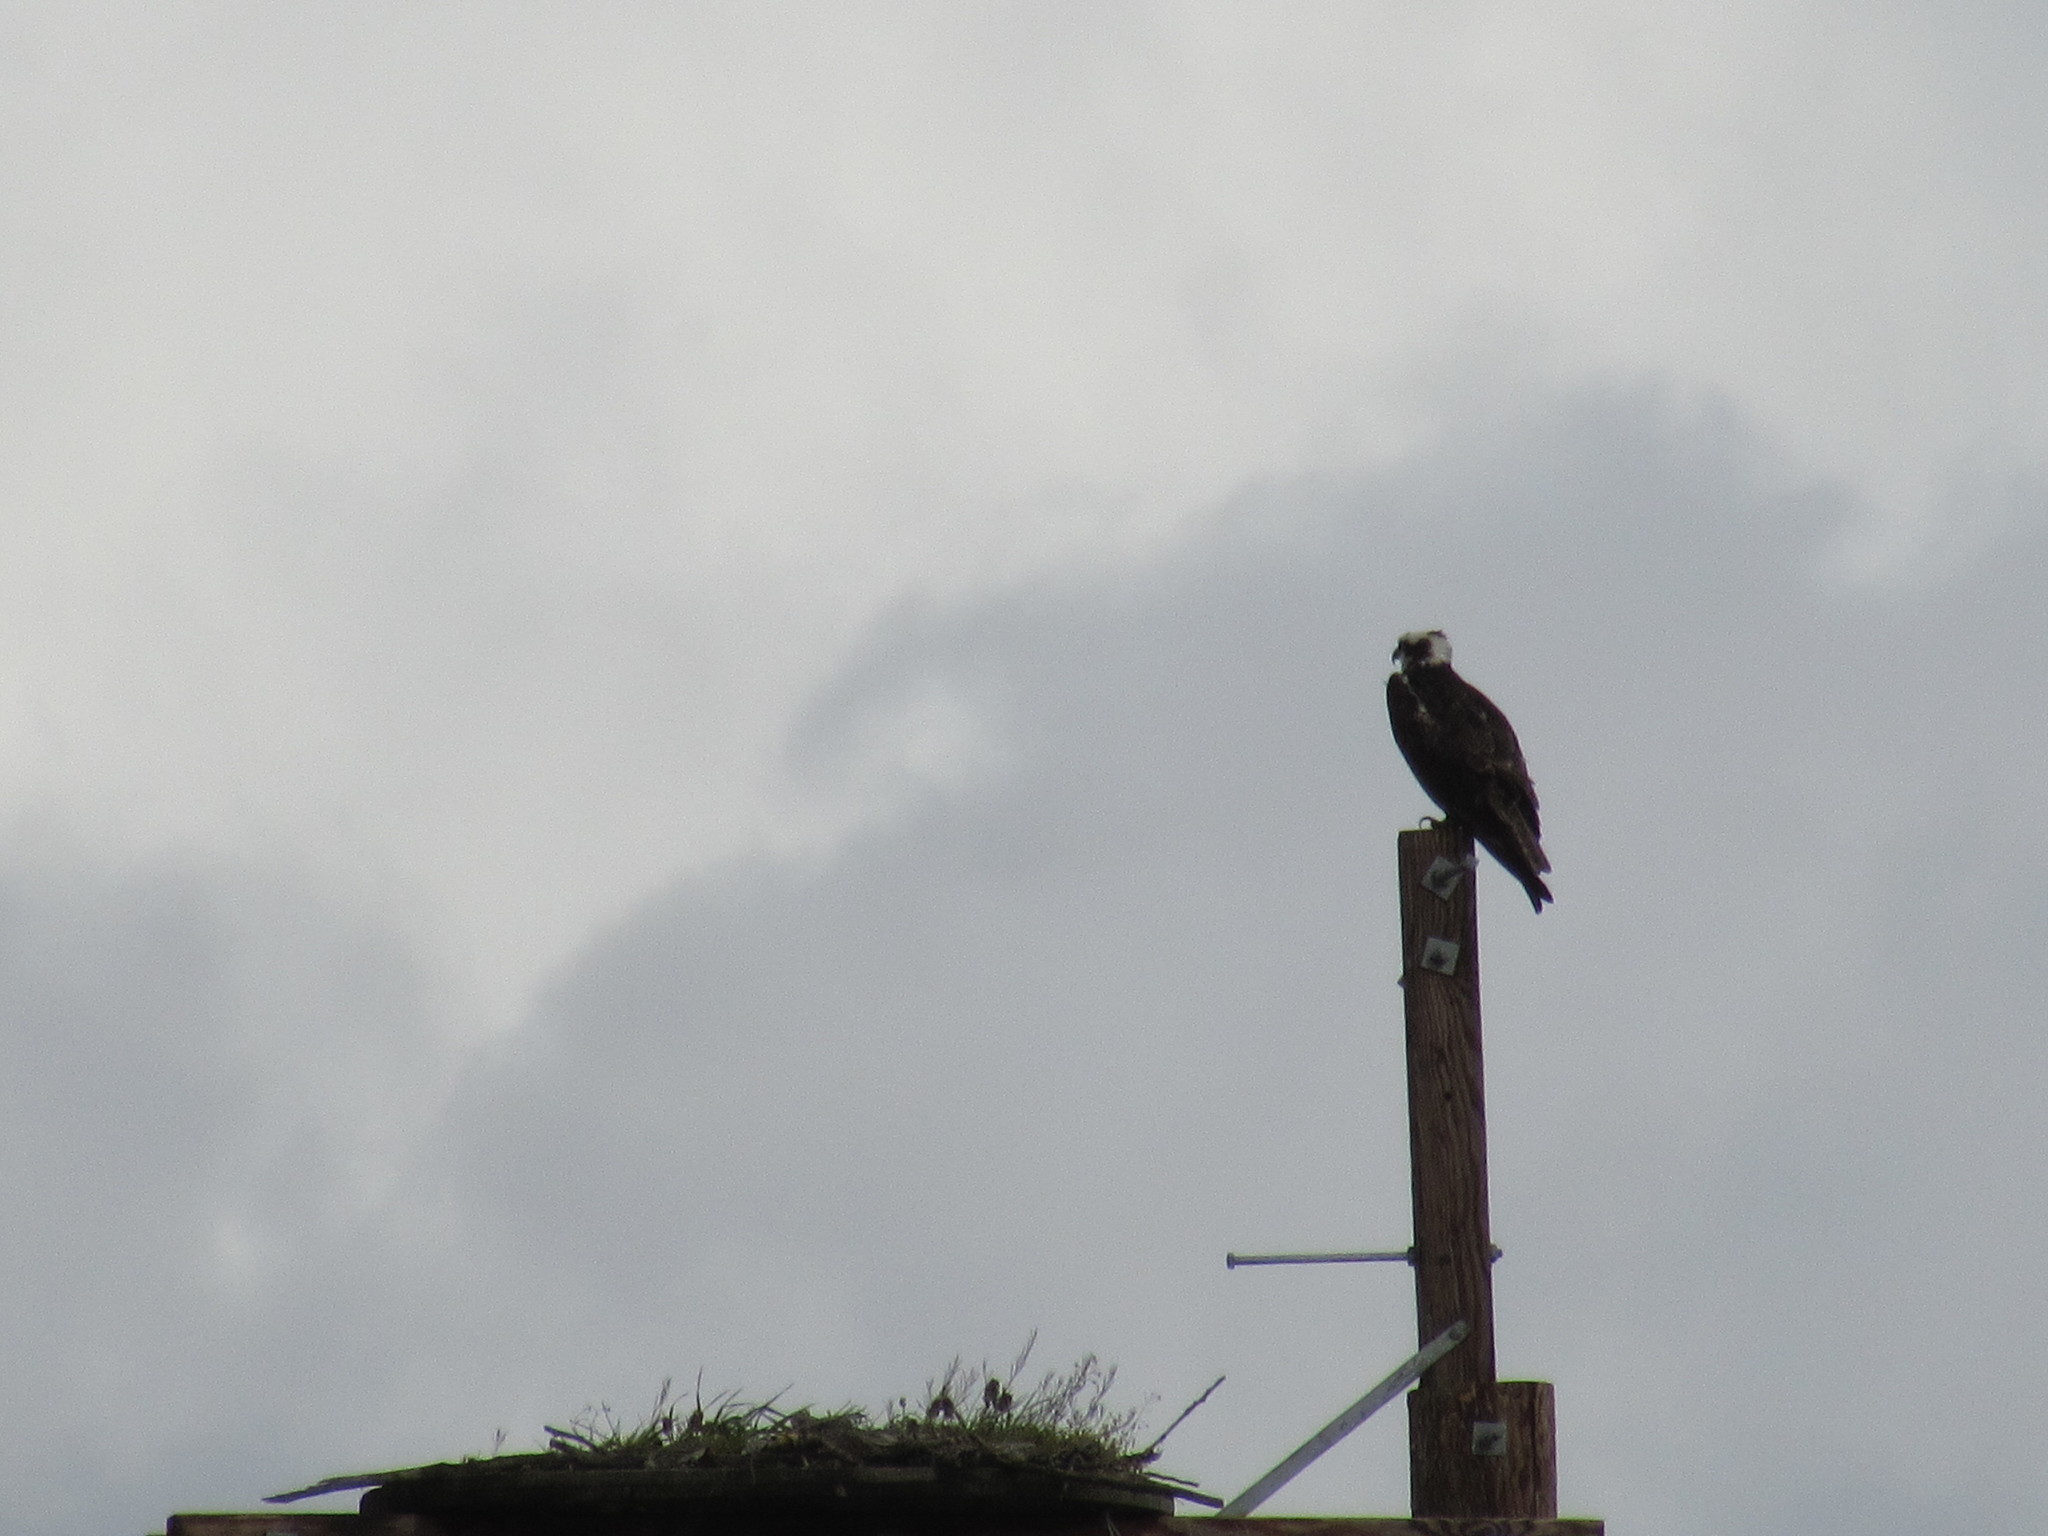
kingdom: Animalia
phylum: Chordata
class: Aves
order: Accipitriformes
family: Pandionidae
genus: Pandion
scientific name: Pandion haliaetus
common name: Osprey
